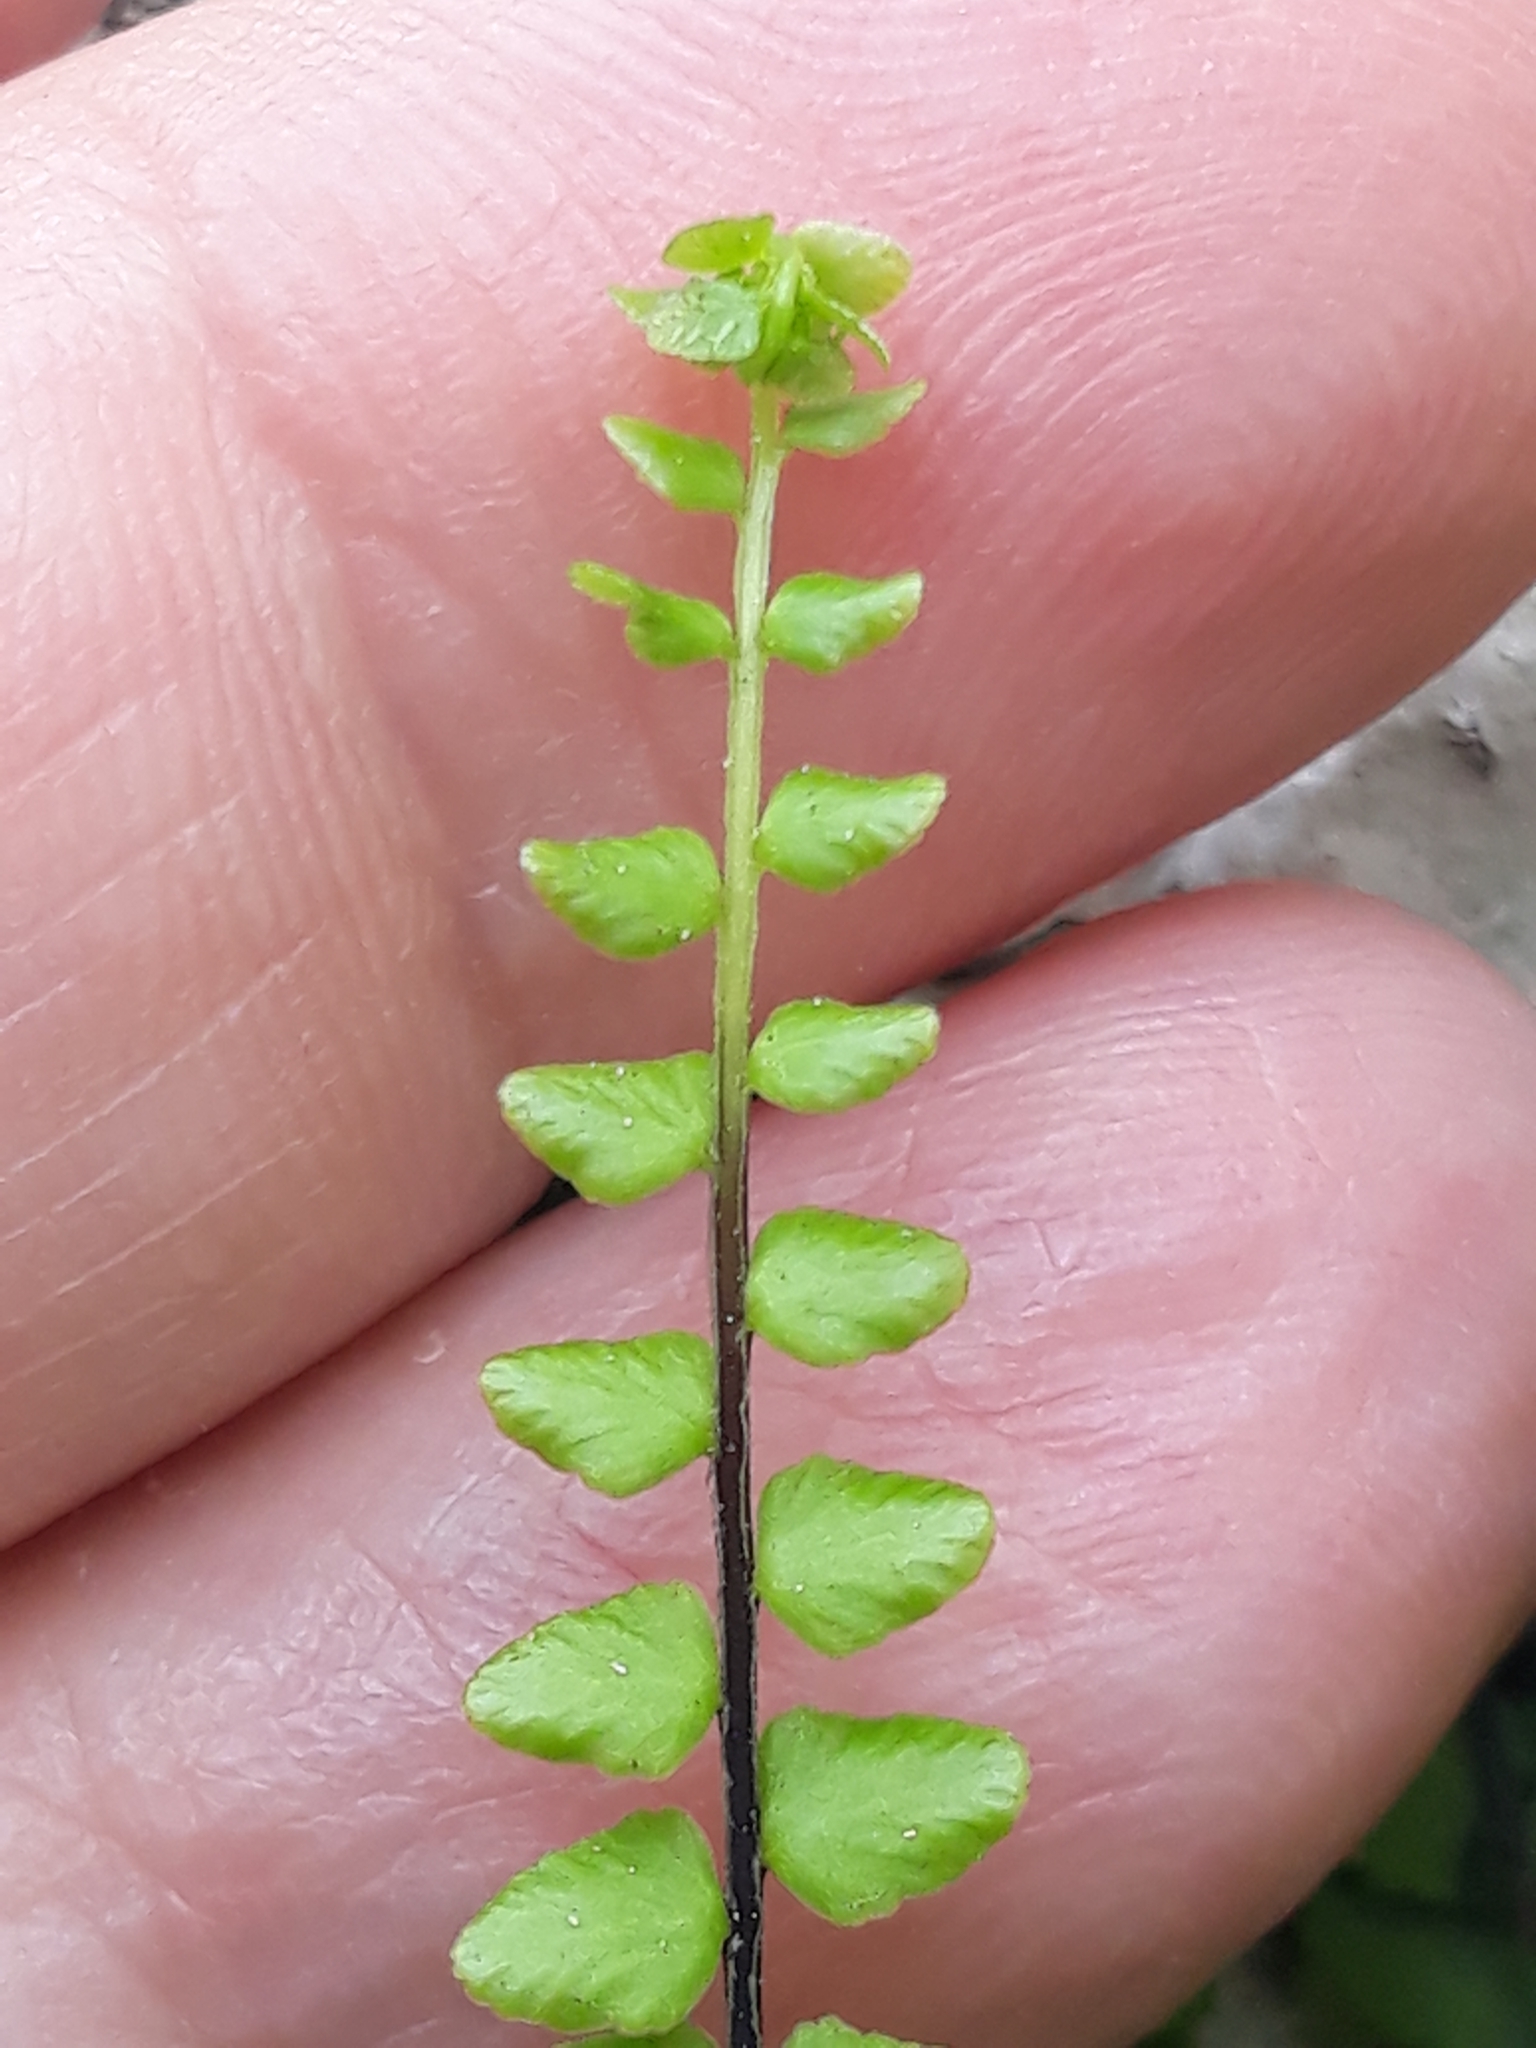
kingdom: Plantae
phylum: Tracheophyta
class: Polypodiopsida
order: Polypodiales
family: Aspleniaceae
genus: Asplenium
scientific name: Asplenium trichomanes
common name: Maidenhair spleenwort
